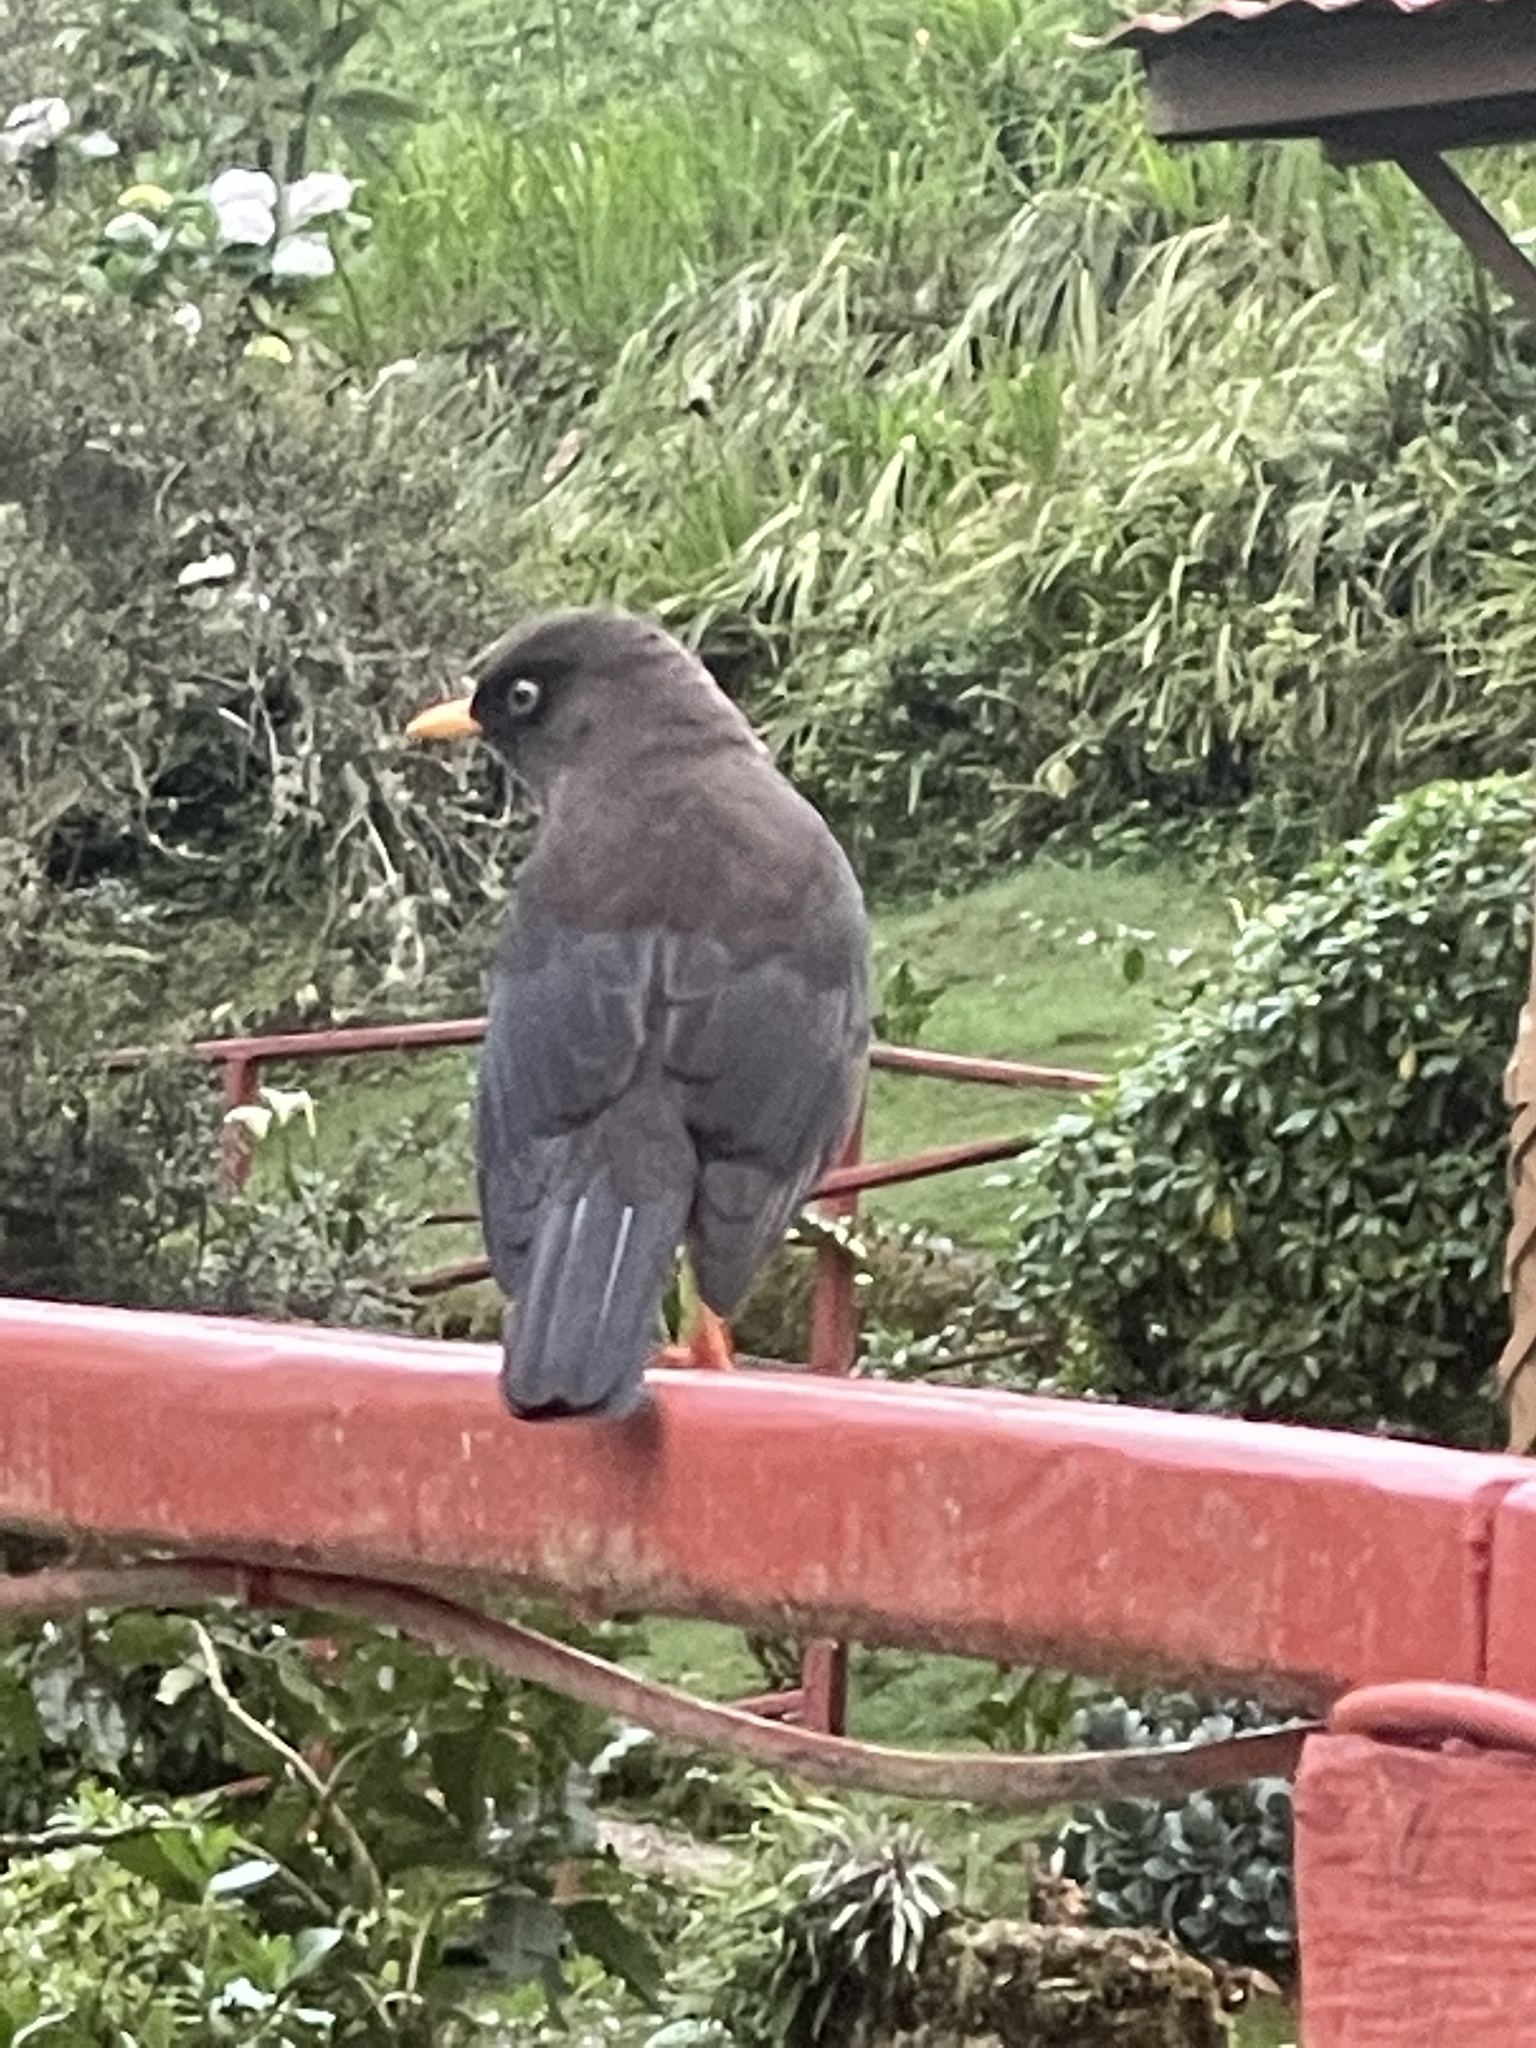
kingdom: Animalia
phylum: Chordata
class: Aves
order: Passeriformes
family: Turdidae
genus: Turdus
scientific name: Turdus nigrescens
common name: Sooty thrush
